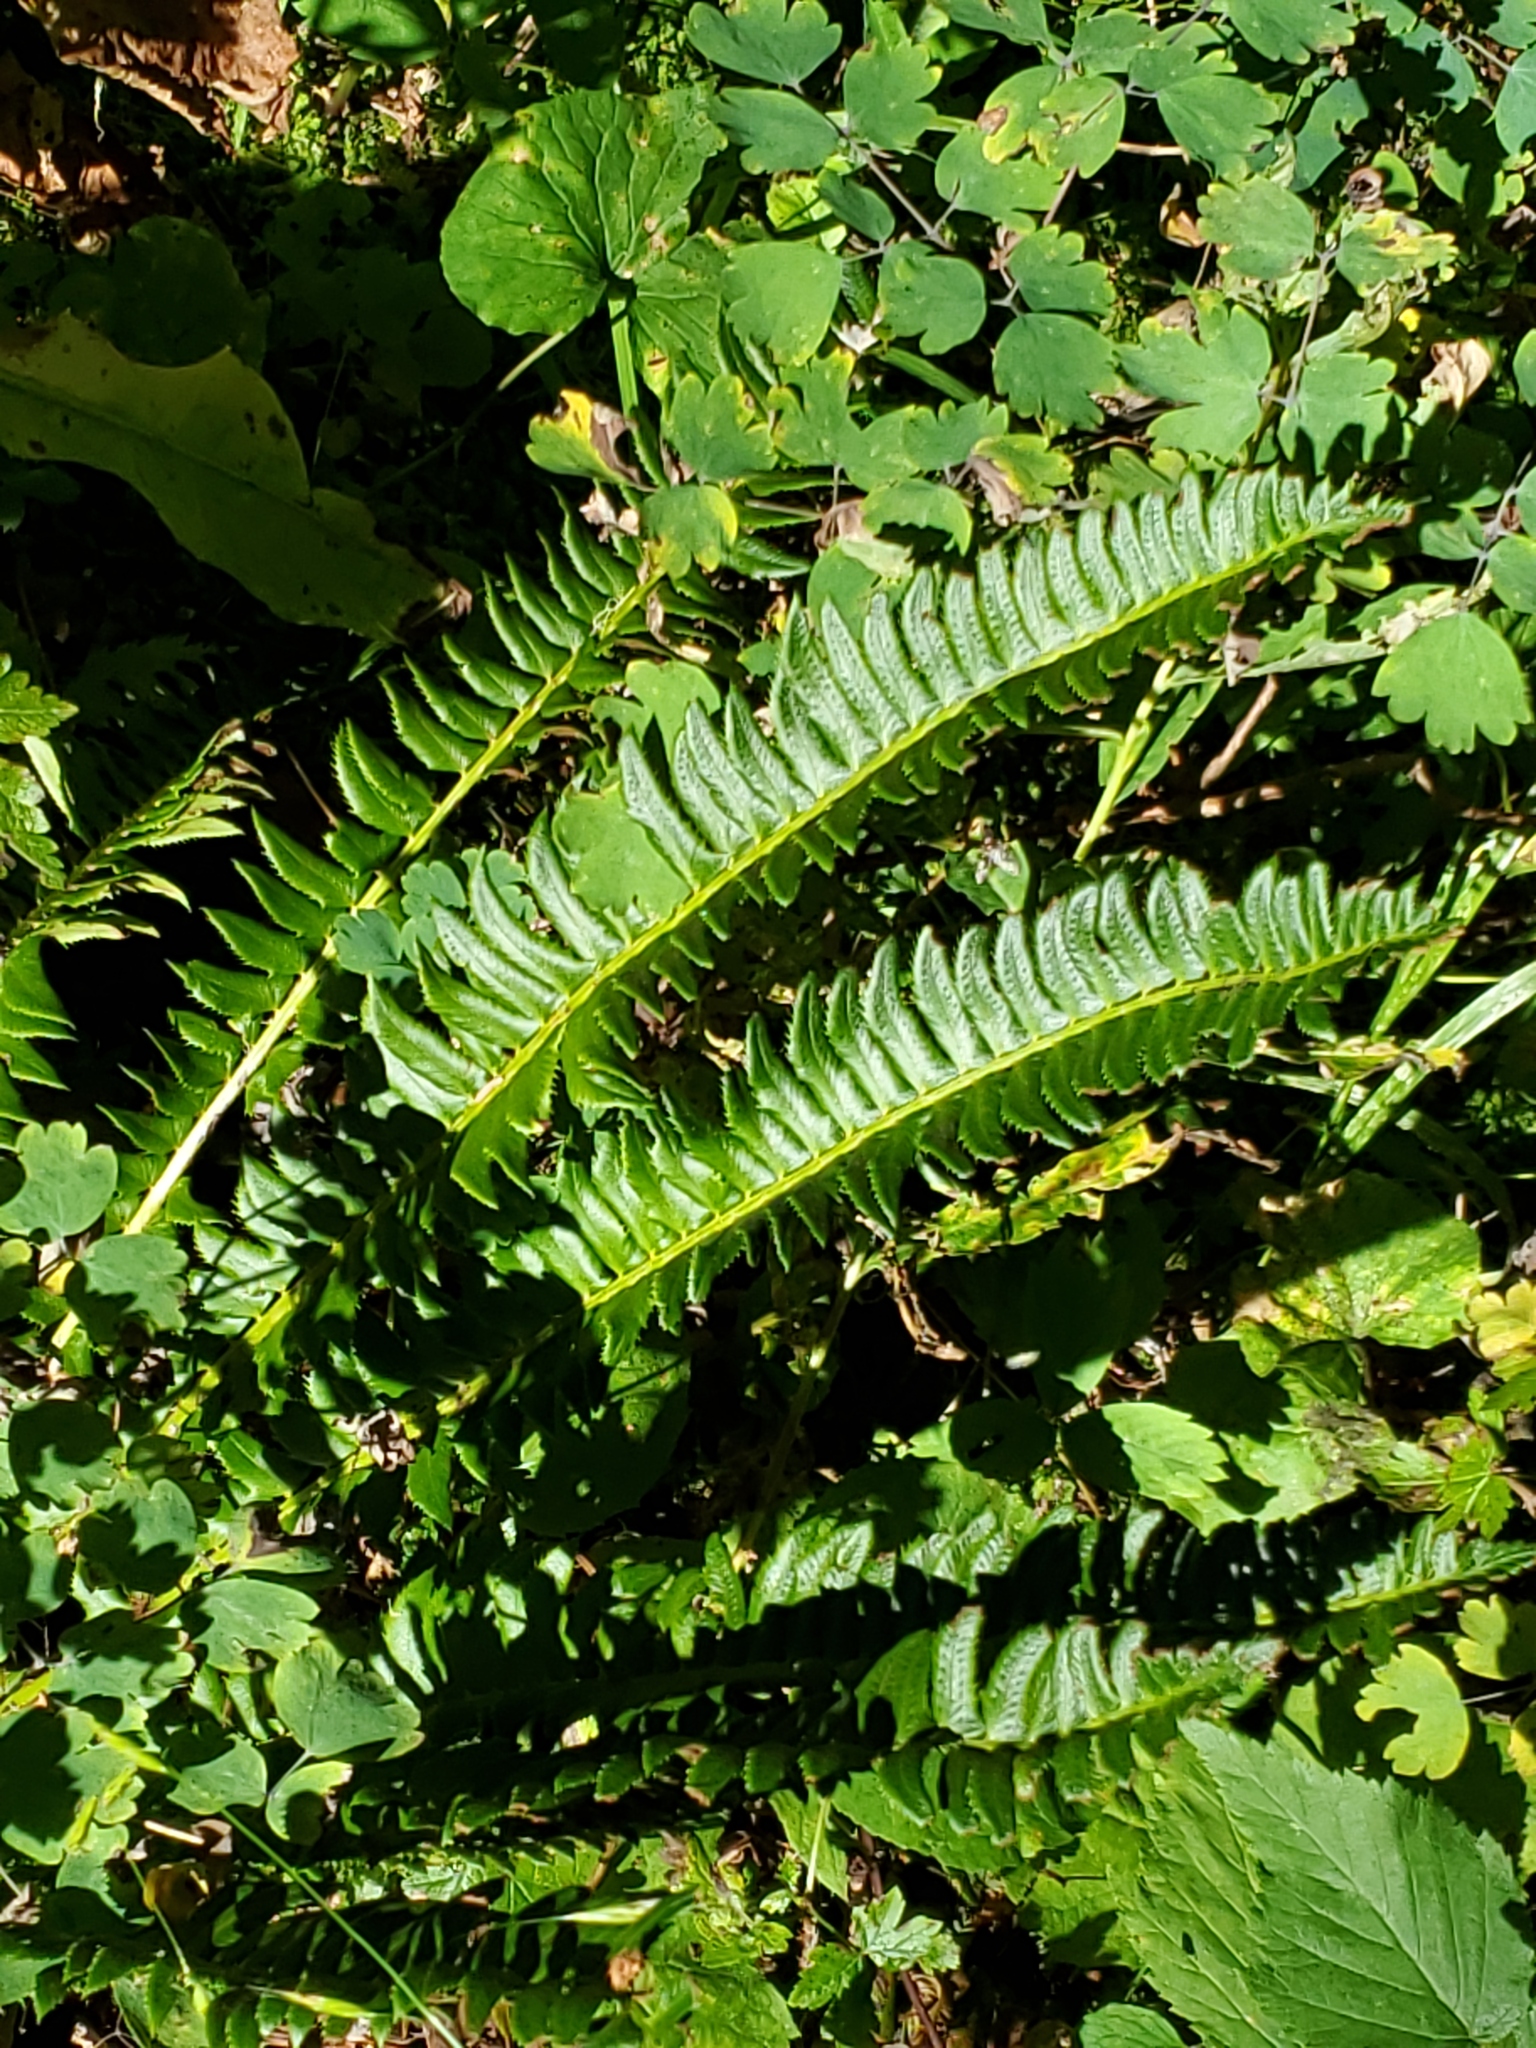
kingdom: Plantae
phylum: Tracheophyta
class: Polypodiopsida
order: Polypodiales
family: Dryopteridaceae
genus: Polystichum
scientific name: Polystichum lonchitis
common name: Holly fern
